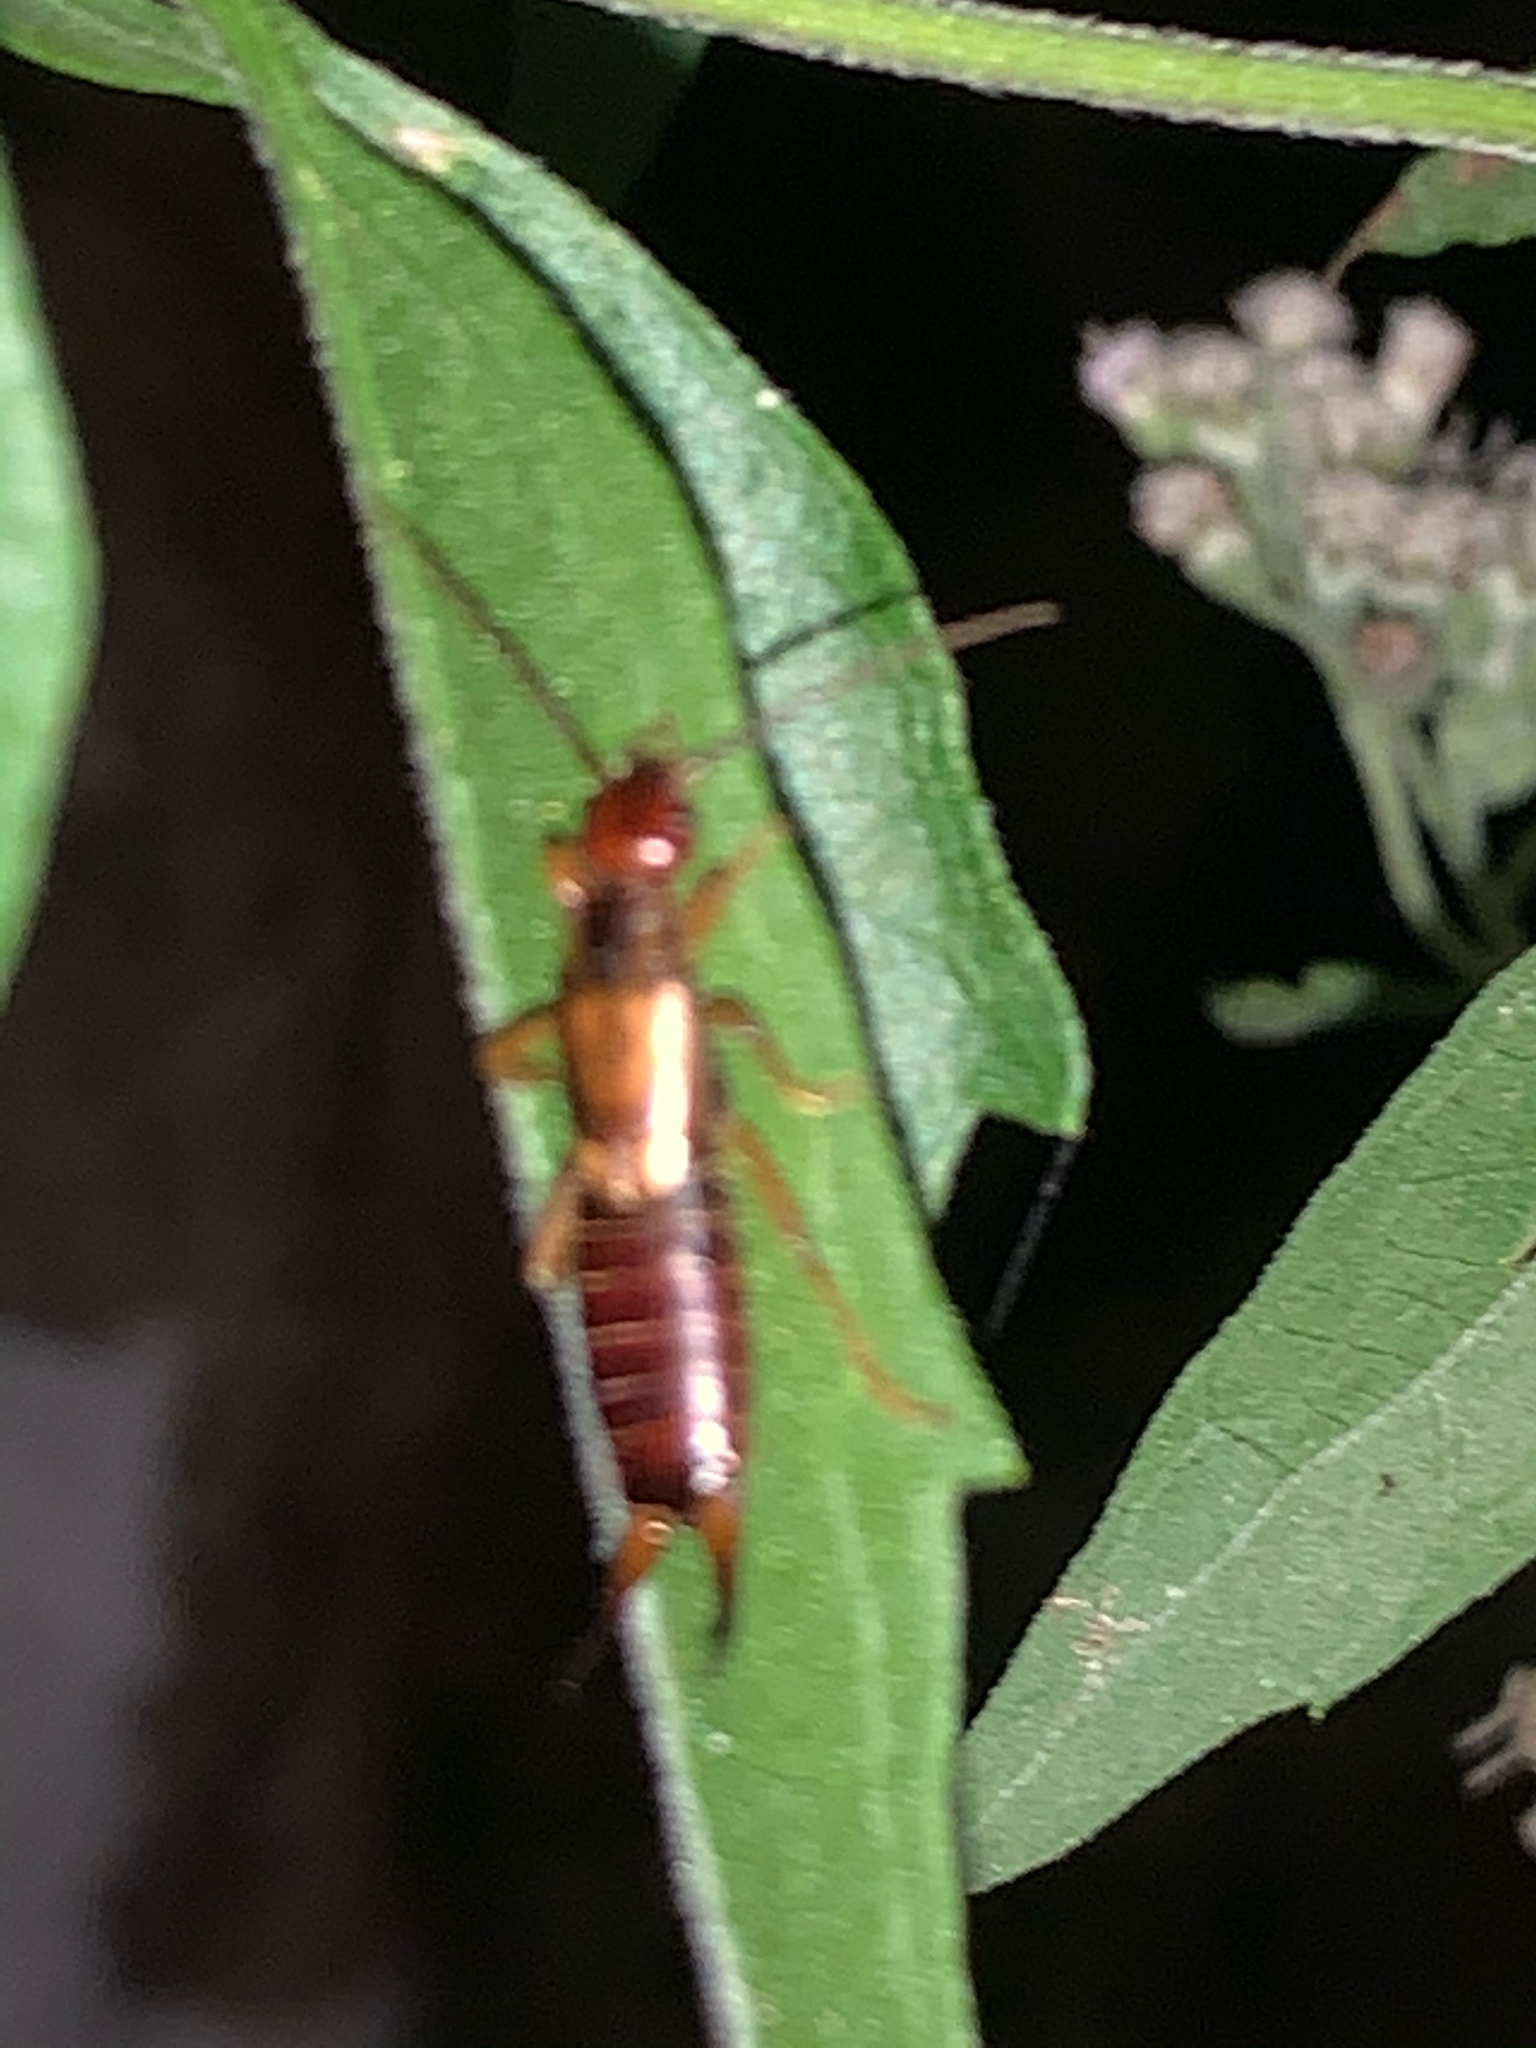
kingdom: Animalia
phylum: Arthropoda
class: Insecta
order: Dermaptera
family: Forficulidae
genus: Forficula
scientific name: Forficula
